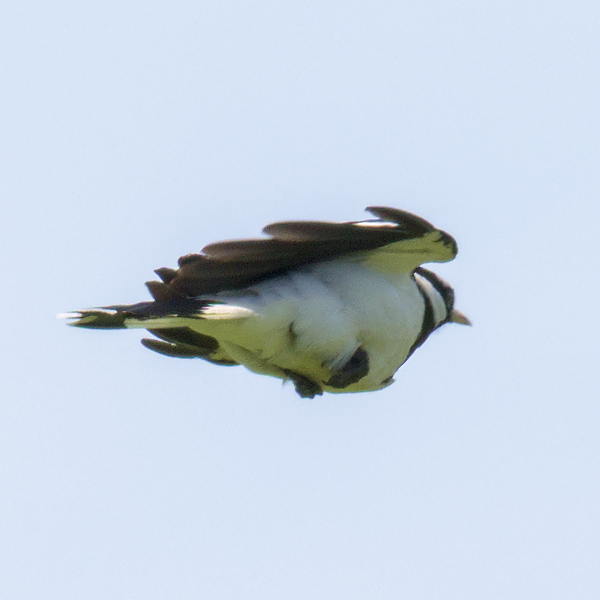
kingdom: Animalia
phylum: Chordata
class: Aves
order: Passeriformes
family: Monarchidae
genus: Grallina
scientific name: Grallina cyanoleuca
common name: Magpie-lark
